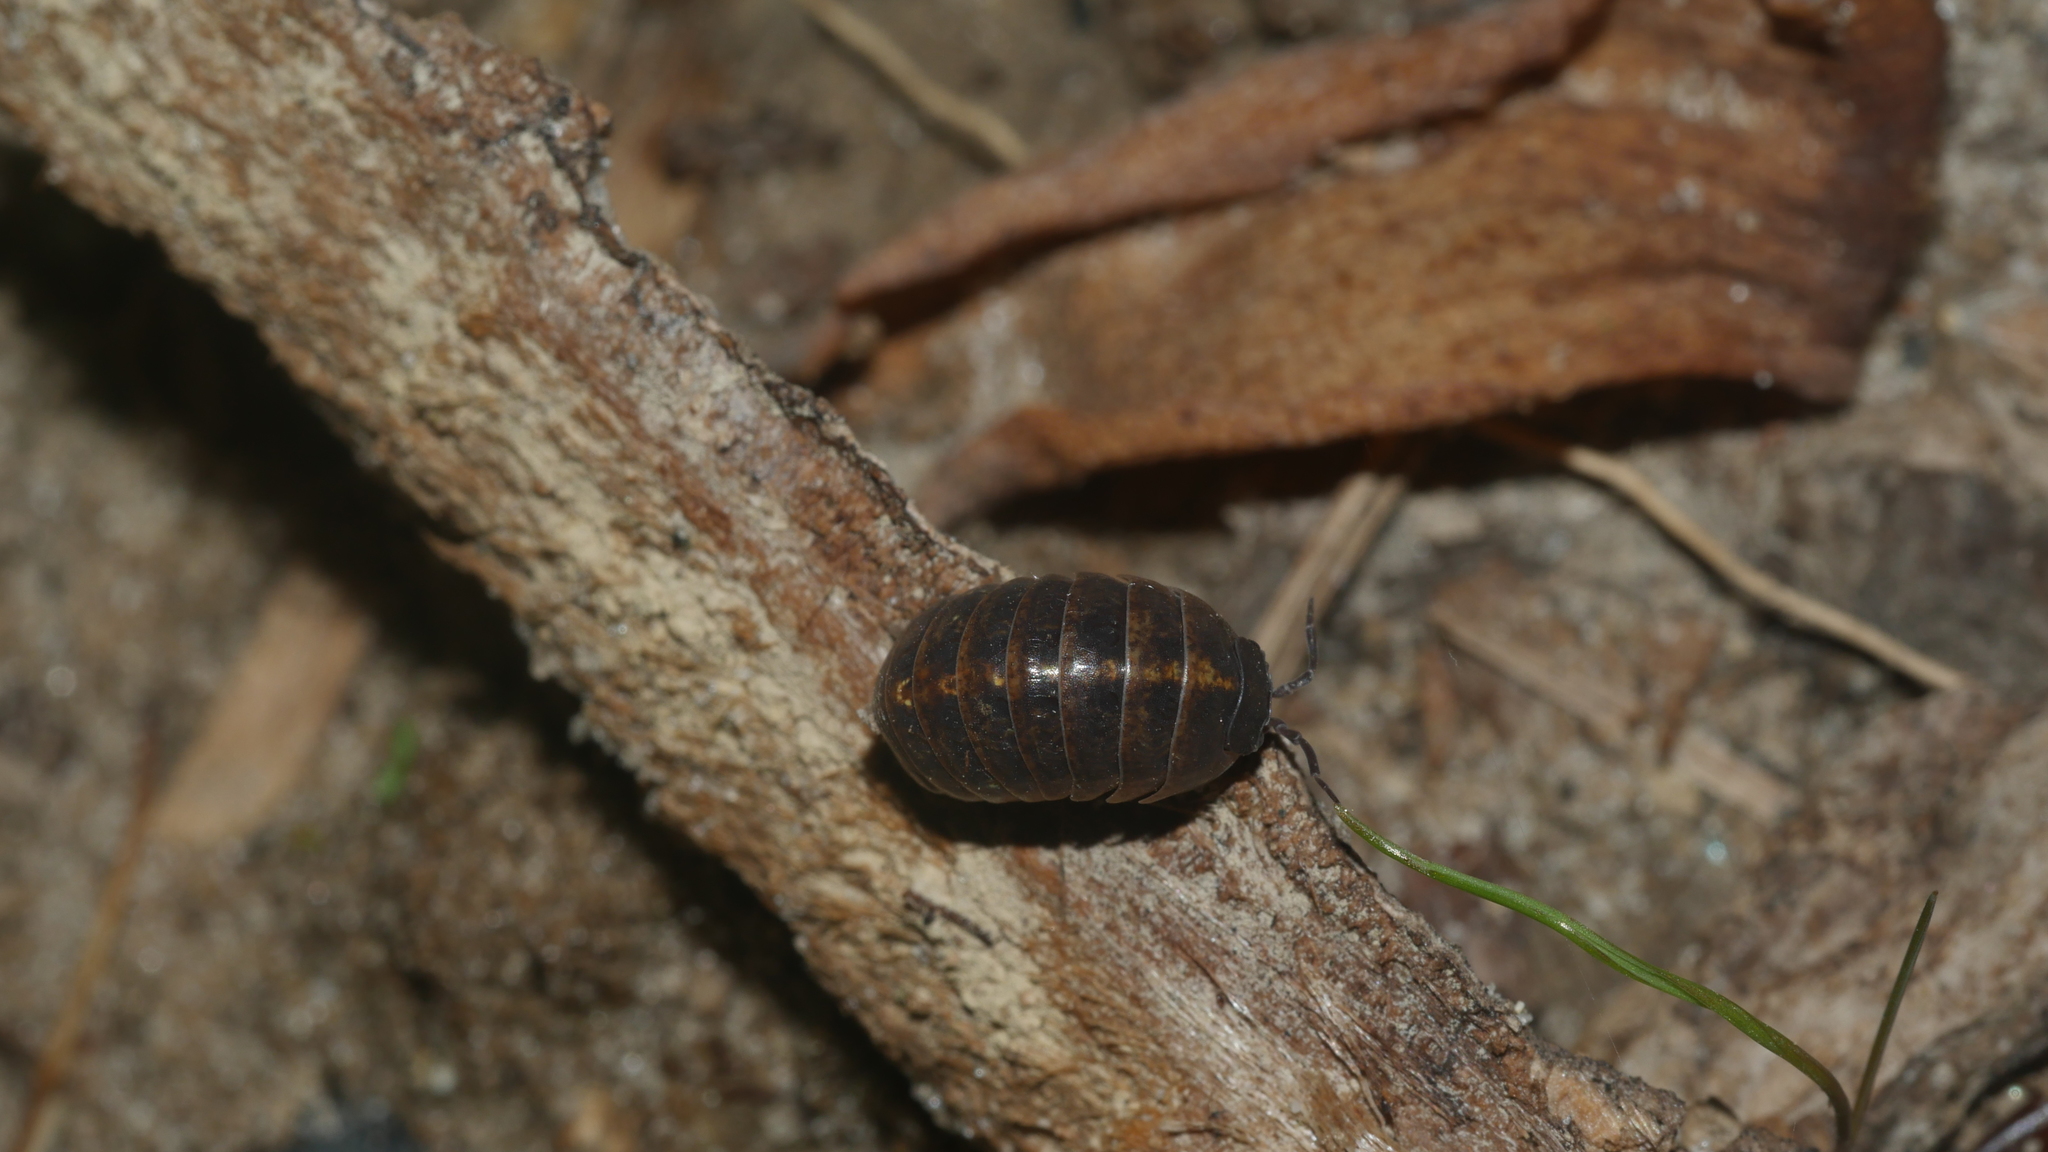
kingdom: Animalia
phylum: Arthropoda
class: Malacostraca
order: Isopoda
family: Armadillidiidae
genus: Armadillidium
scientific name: Armadillidium vulgare
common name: Common pill woodlouse
